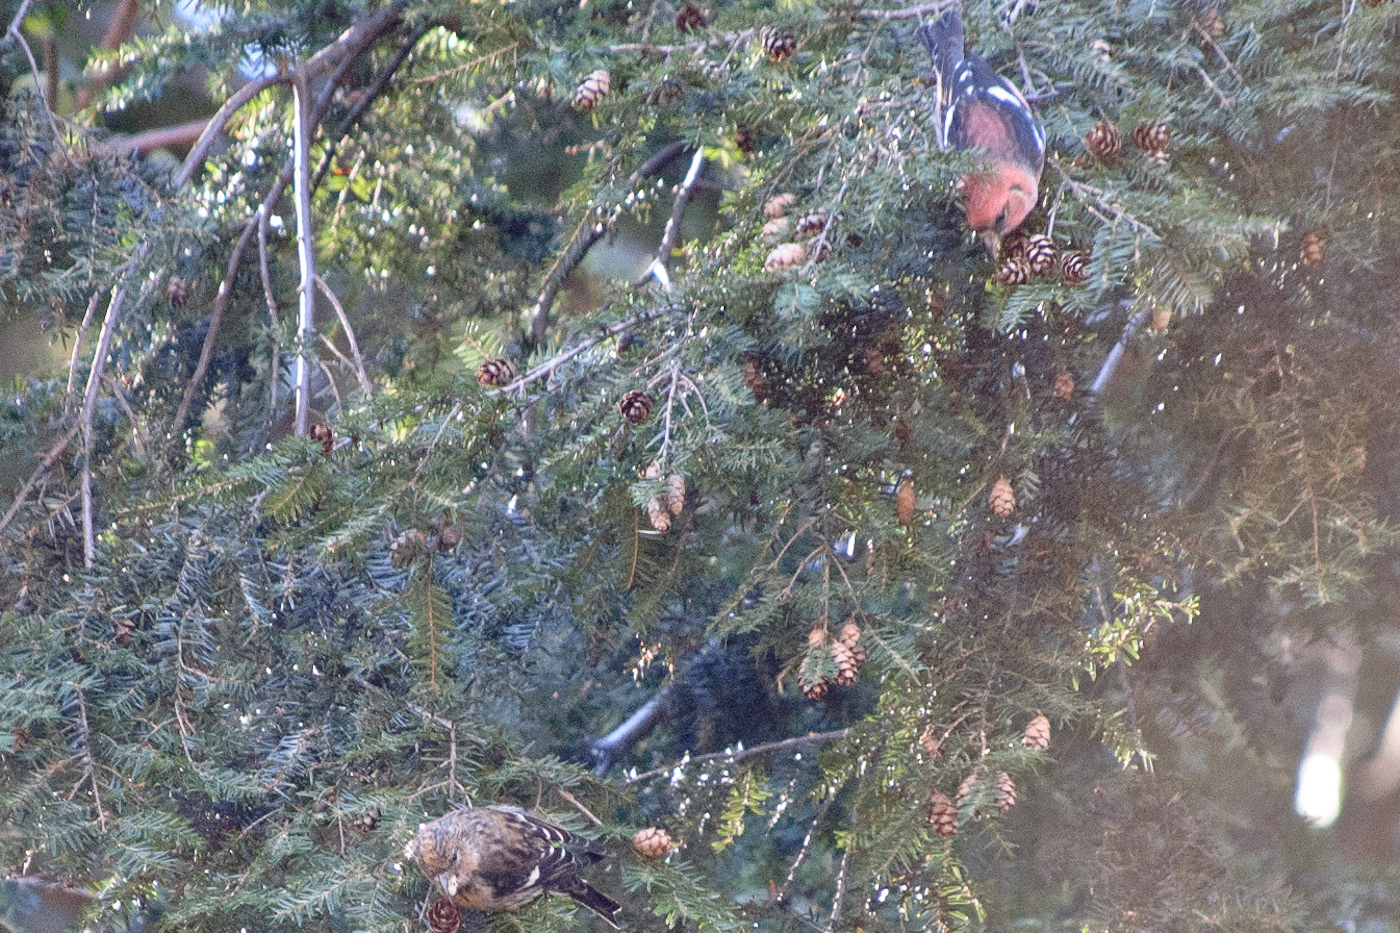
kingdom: Animalia
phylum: Chordata
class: Aves
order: Passeriformes
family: Fringillidae
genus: Loxia
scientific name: Loxia leucoptera
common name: Two-barred crossbill
